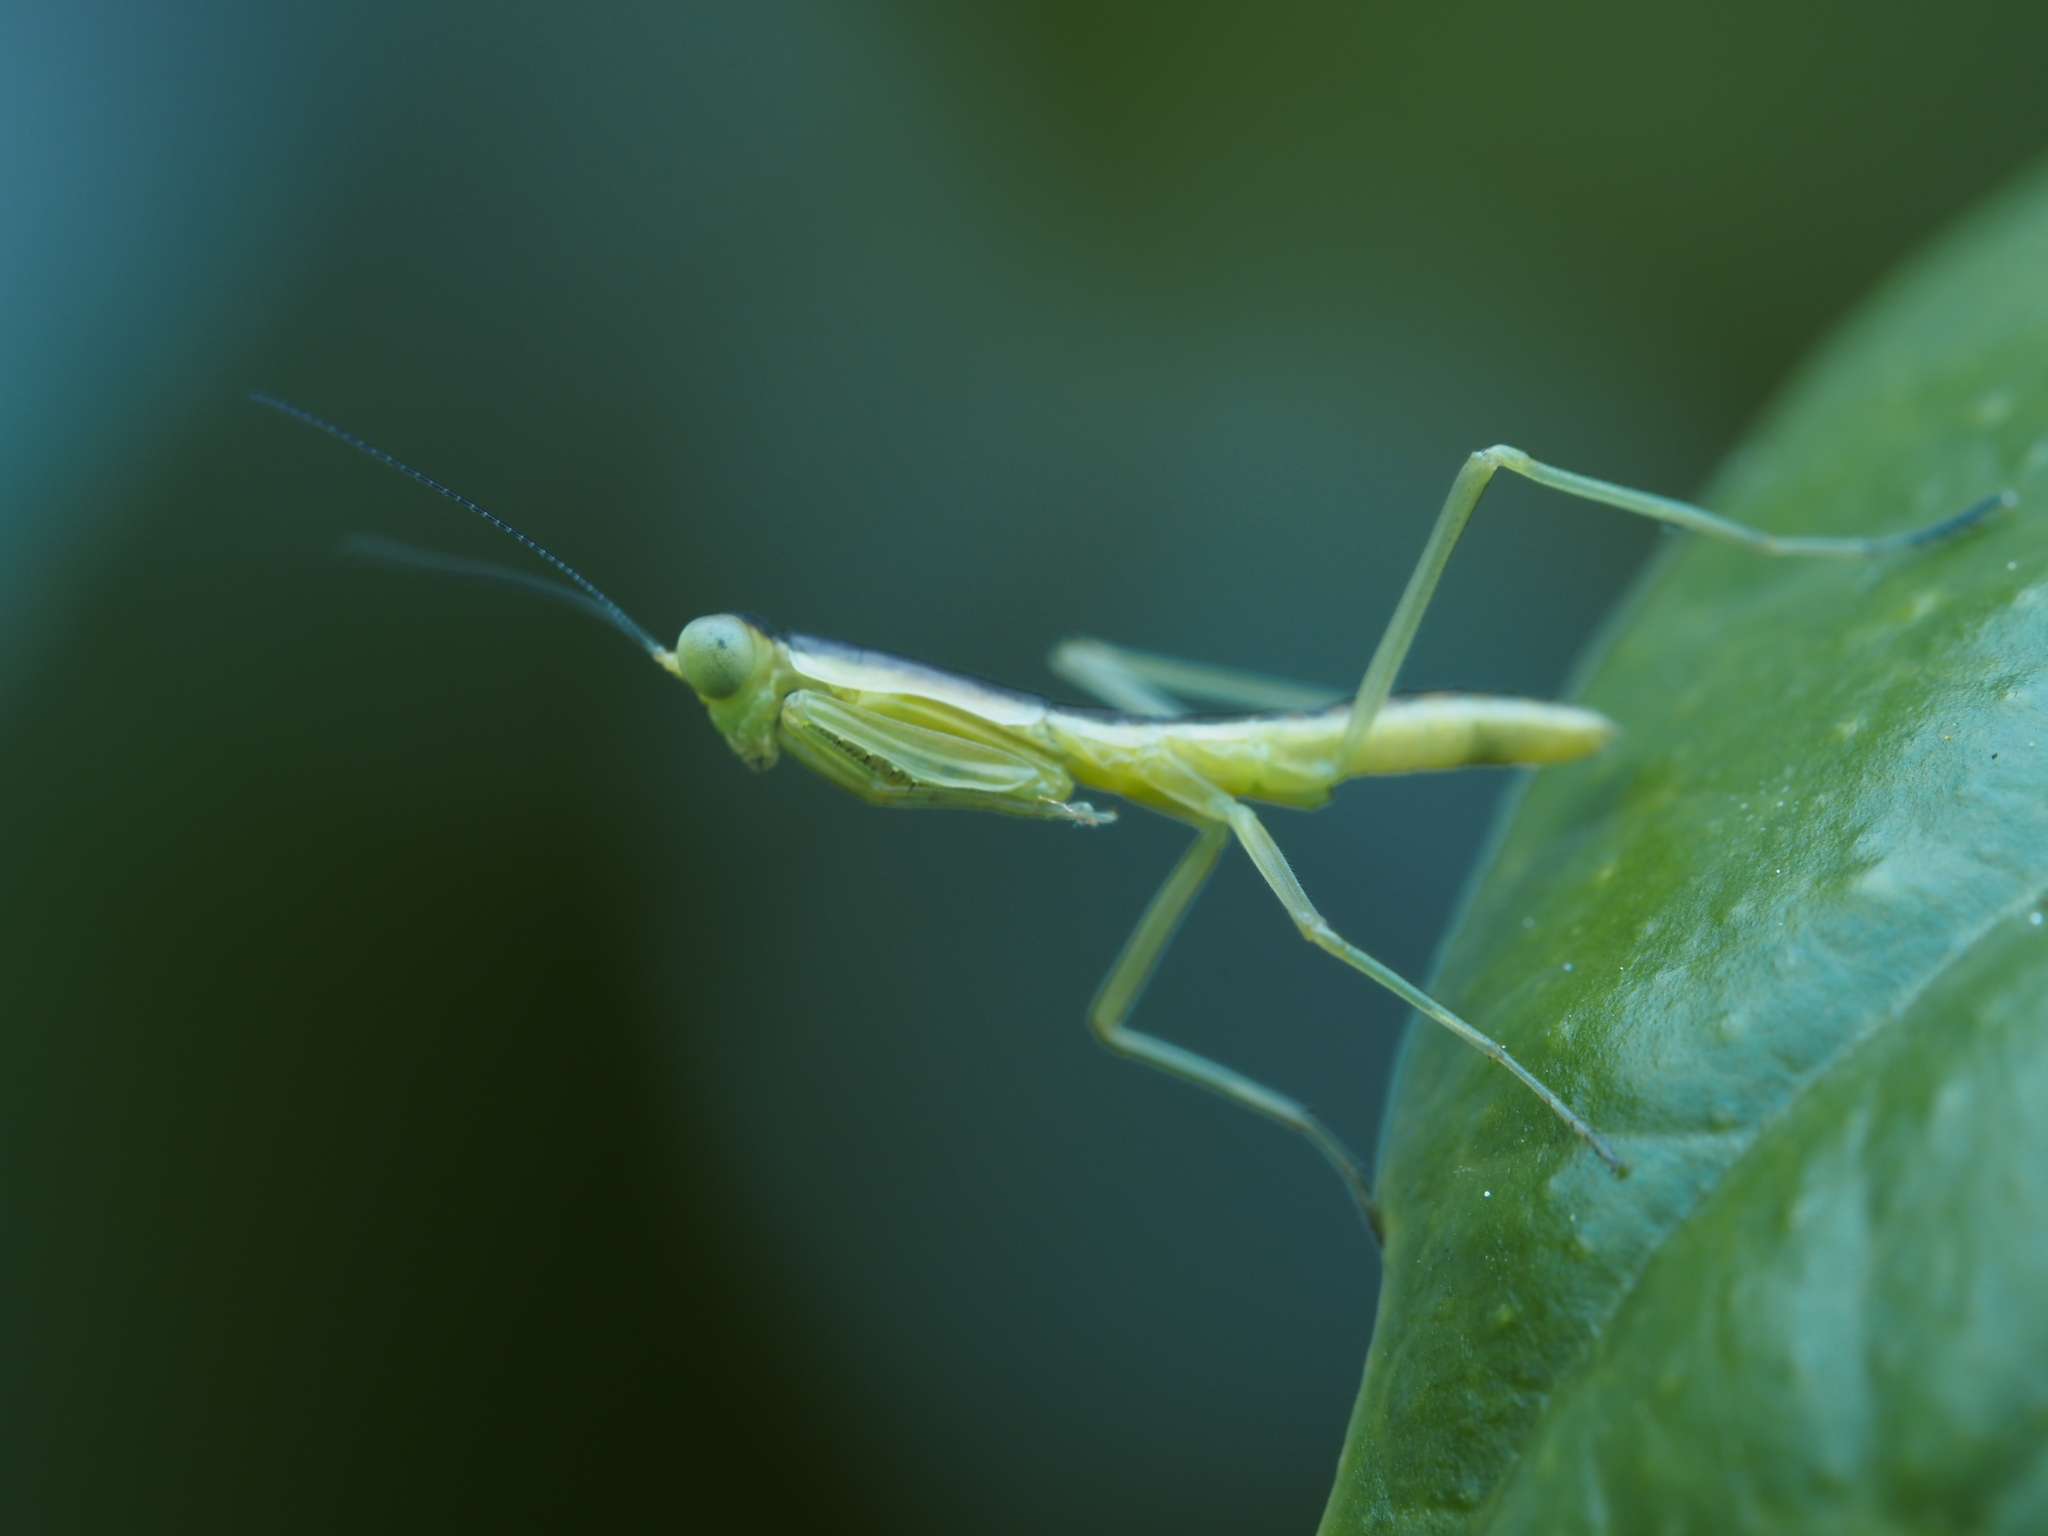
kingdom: Animalia
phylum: Arthropoda
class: Insecta
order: Mantodea
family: Mantidae
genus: Orthodera
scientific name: Orthodera novaezealandiae
